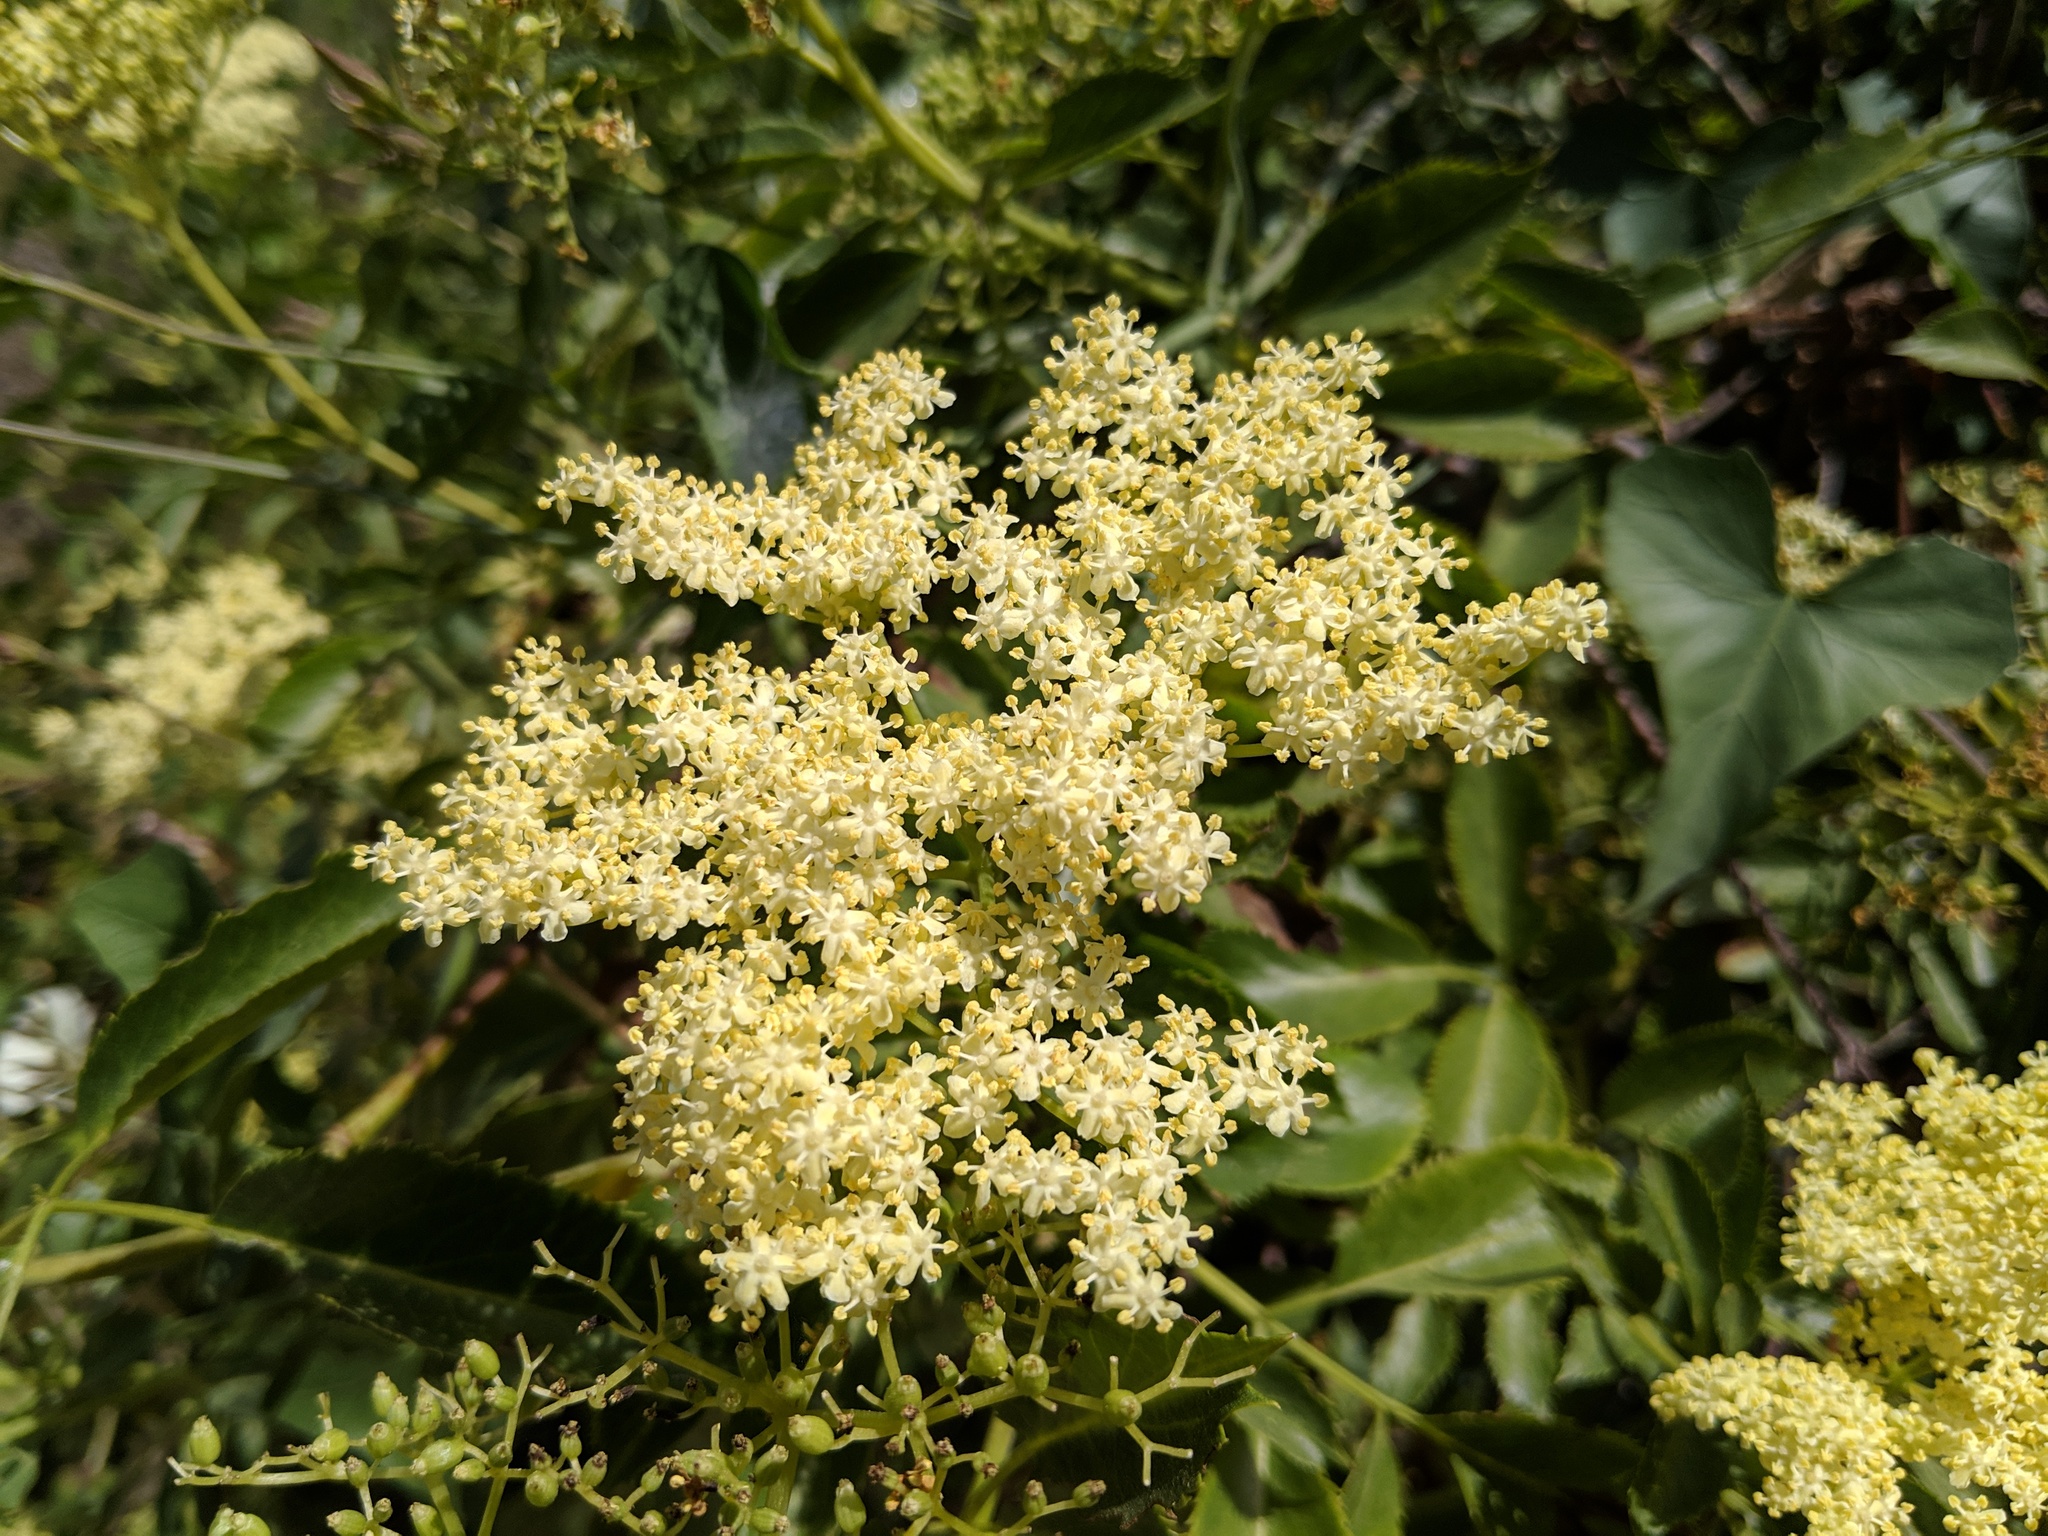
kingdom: Plantae
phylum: Tracheophyta
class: Magnoliopsida
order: Dipsacales
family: Viburnaceae
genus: Sambucus
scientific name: Sambucus cerulea
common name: Blue elder
